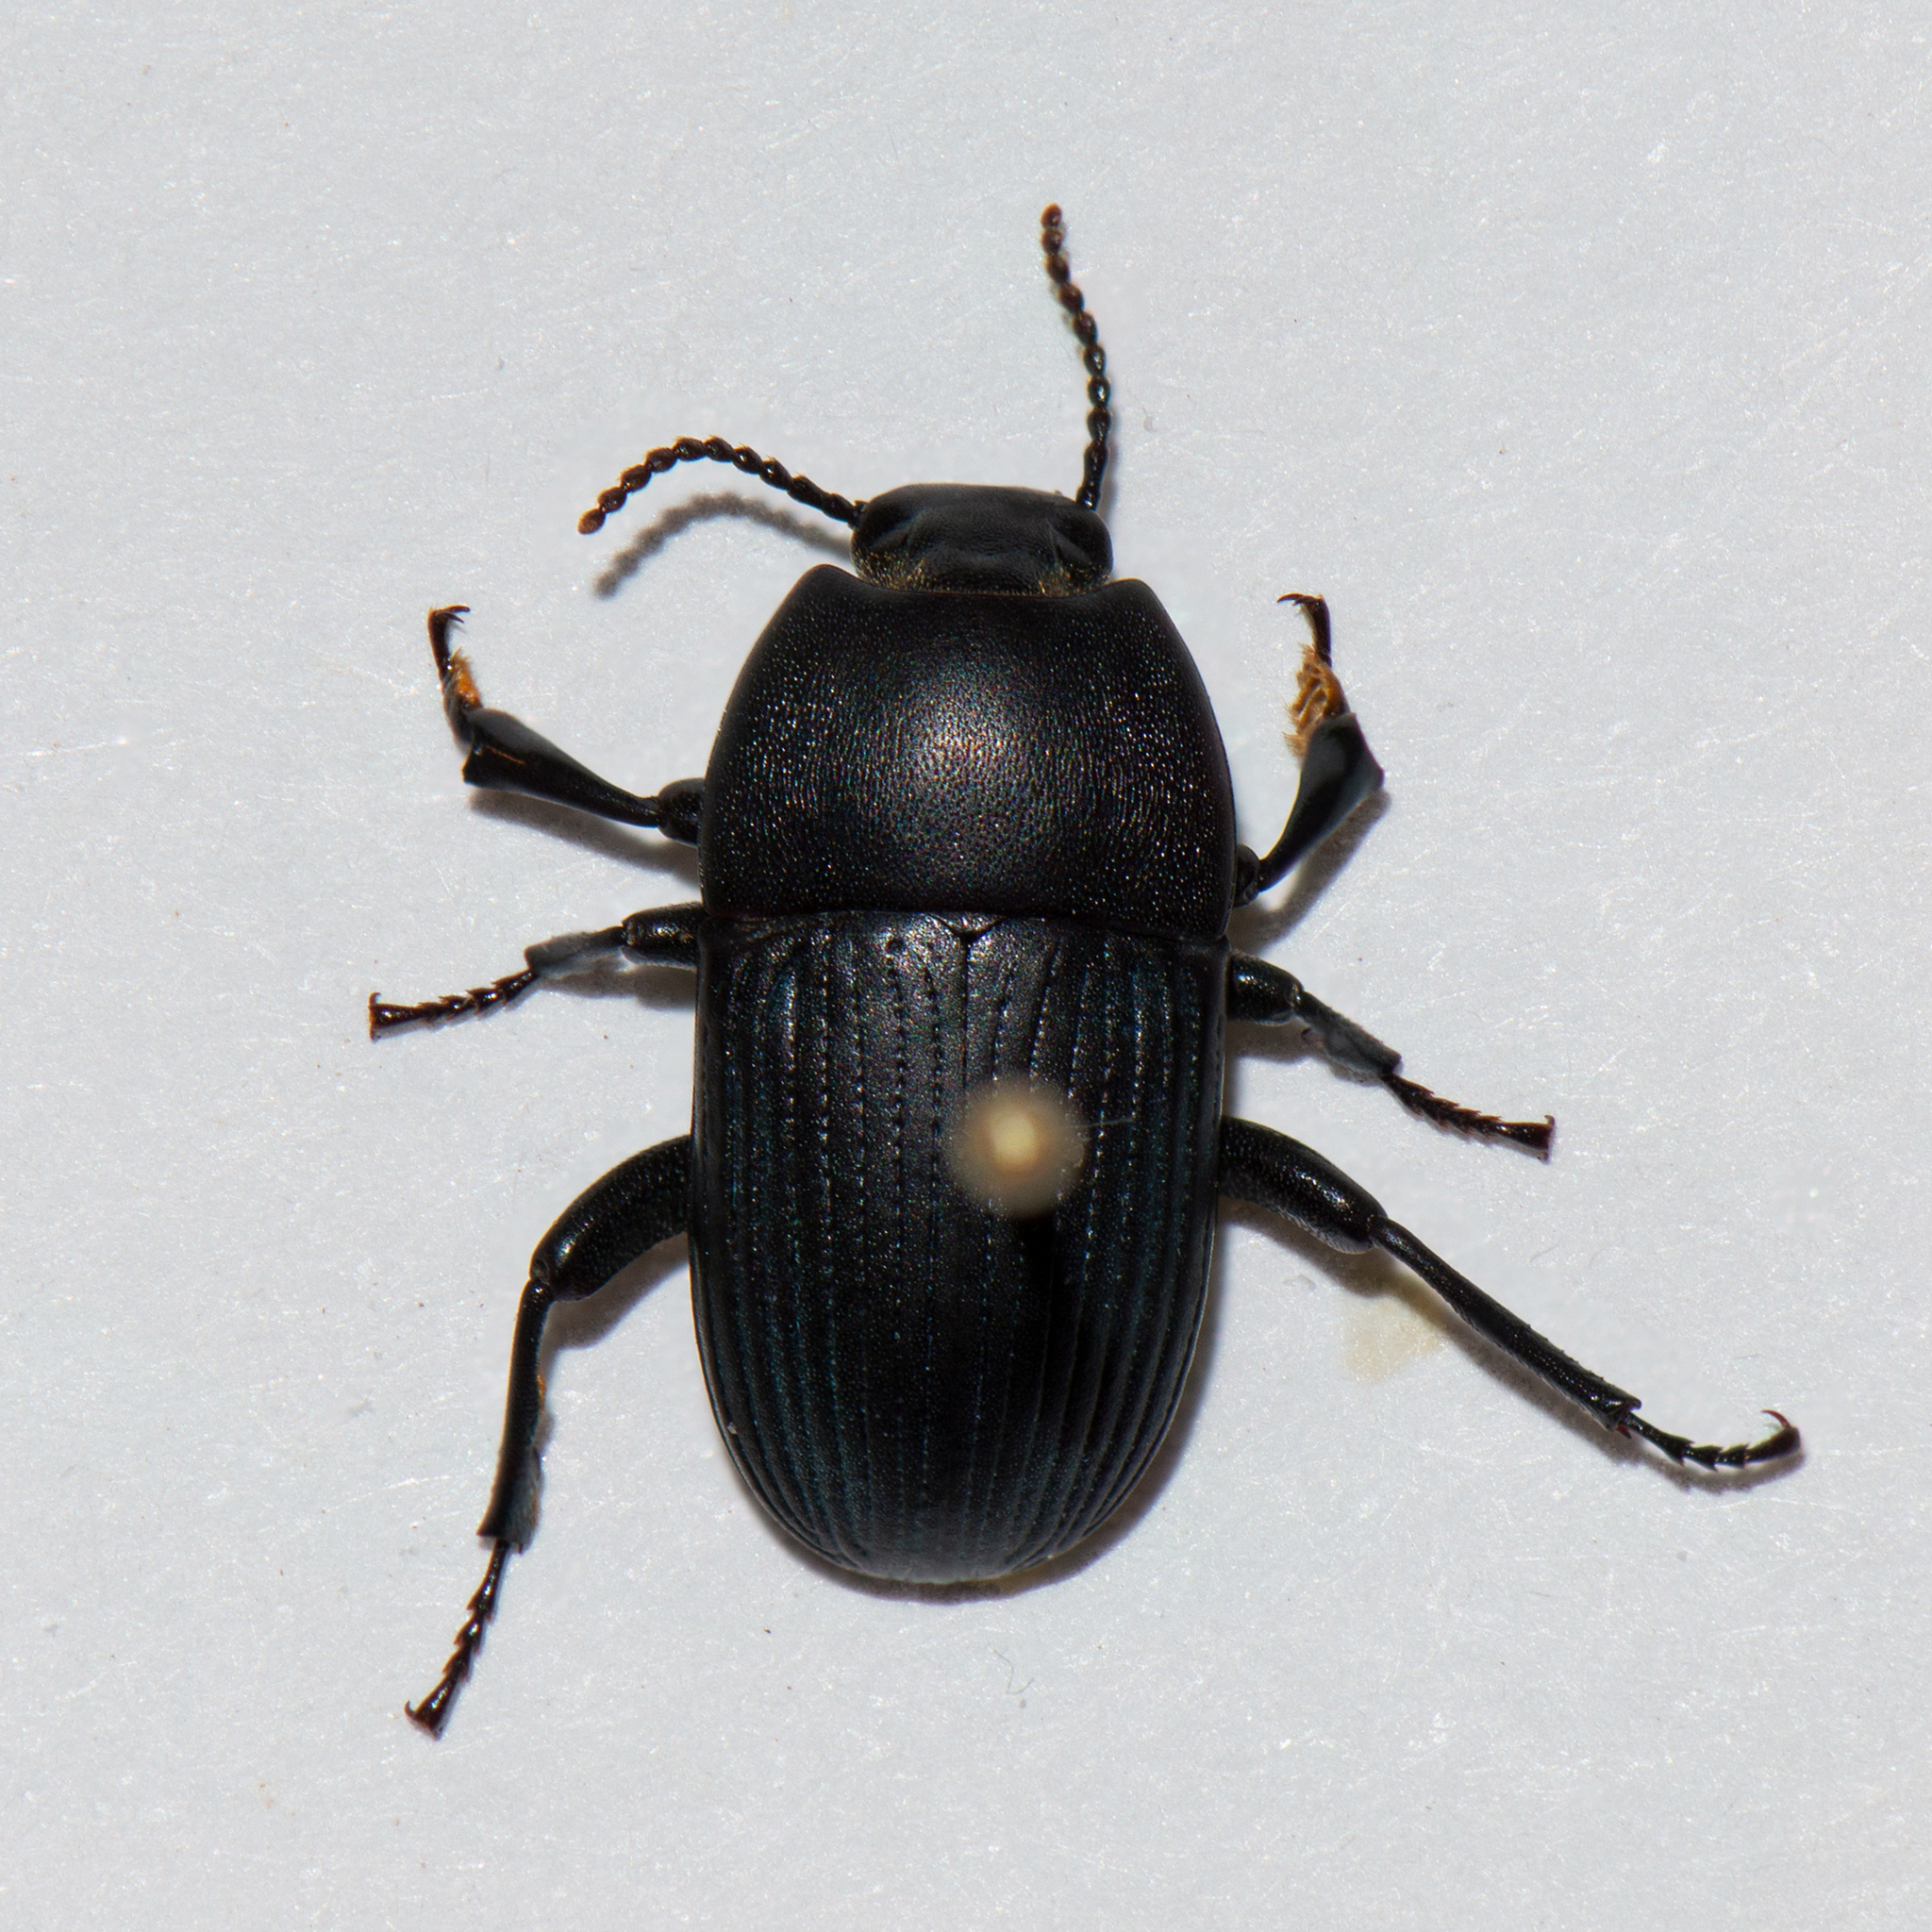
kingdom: Animalia
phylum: Arthropoda
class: Insecta
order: Coleoptera
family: Tenebrionidae
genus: Pedinus
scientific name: Pedinus quadratus
